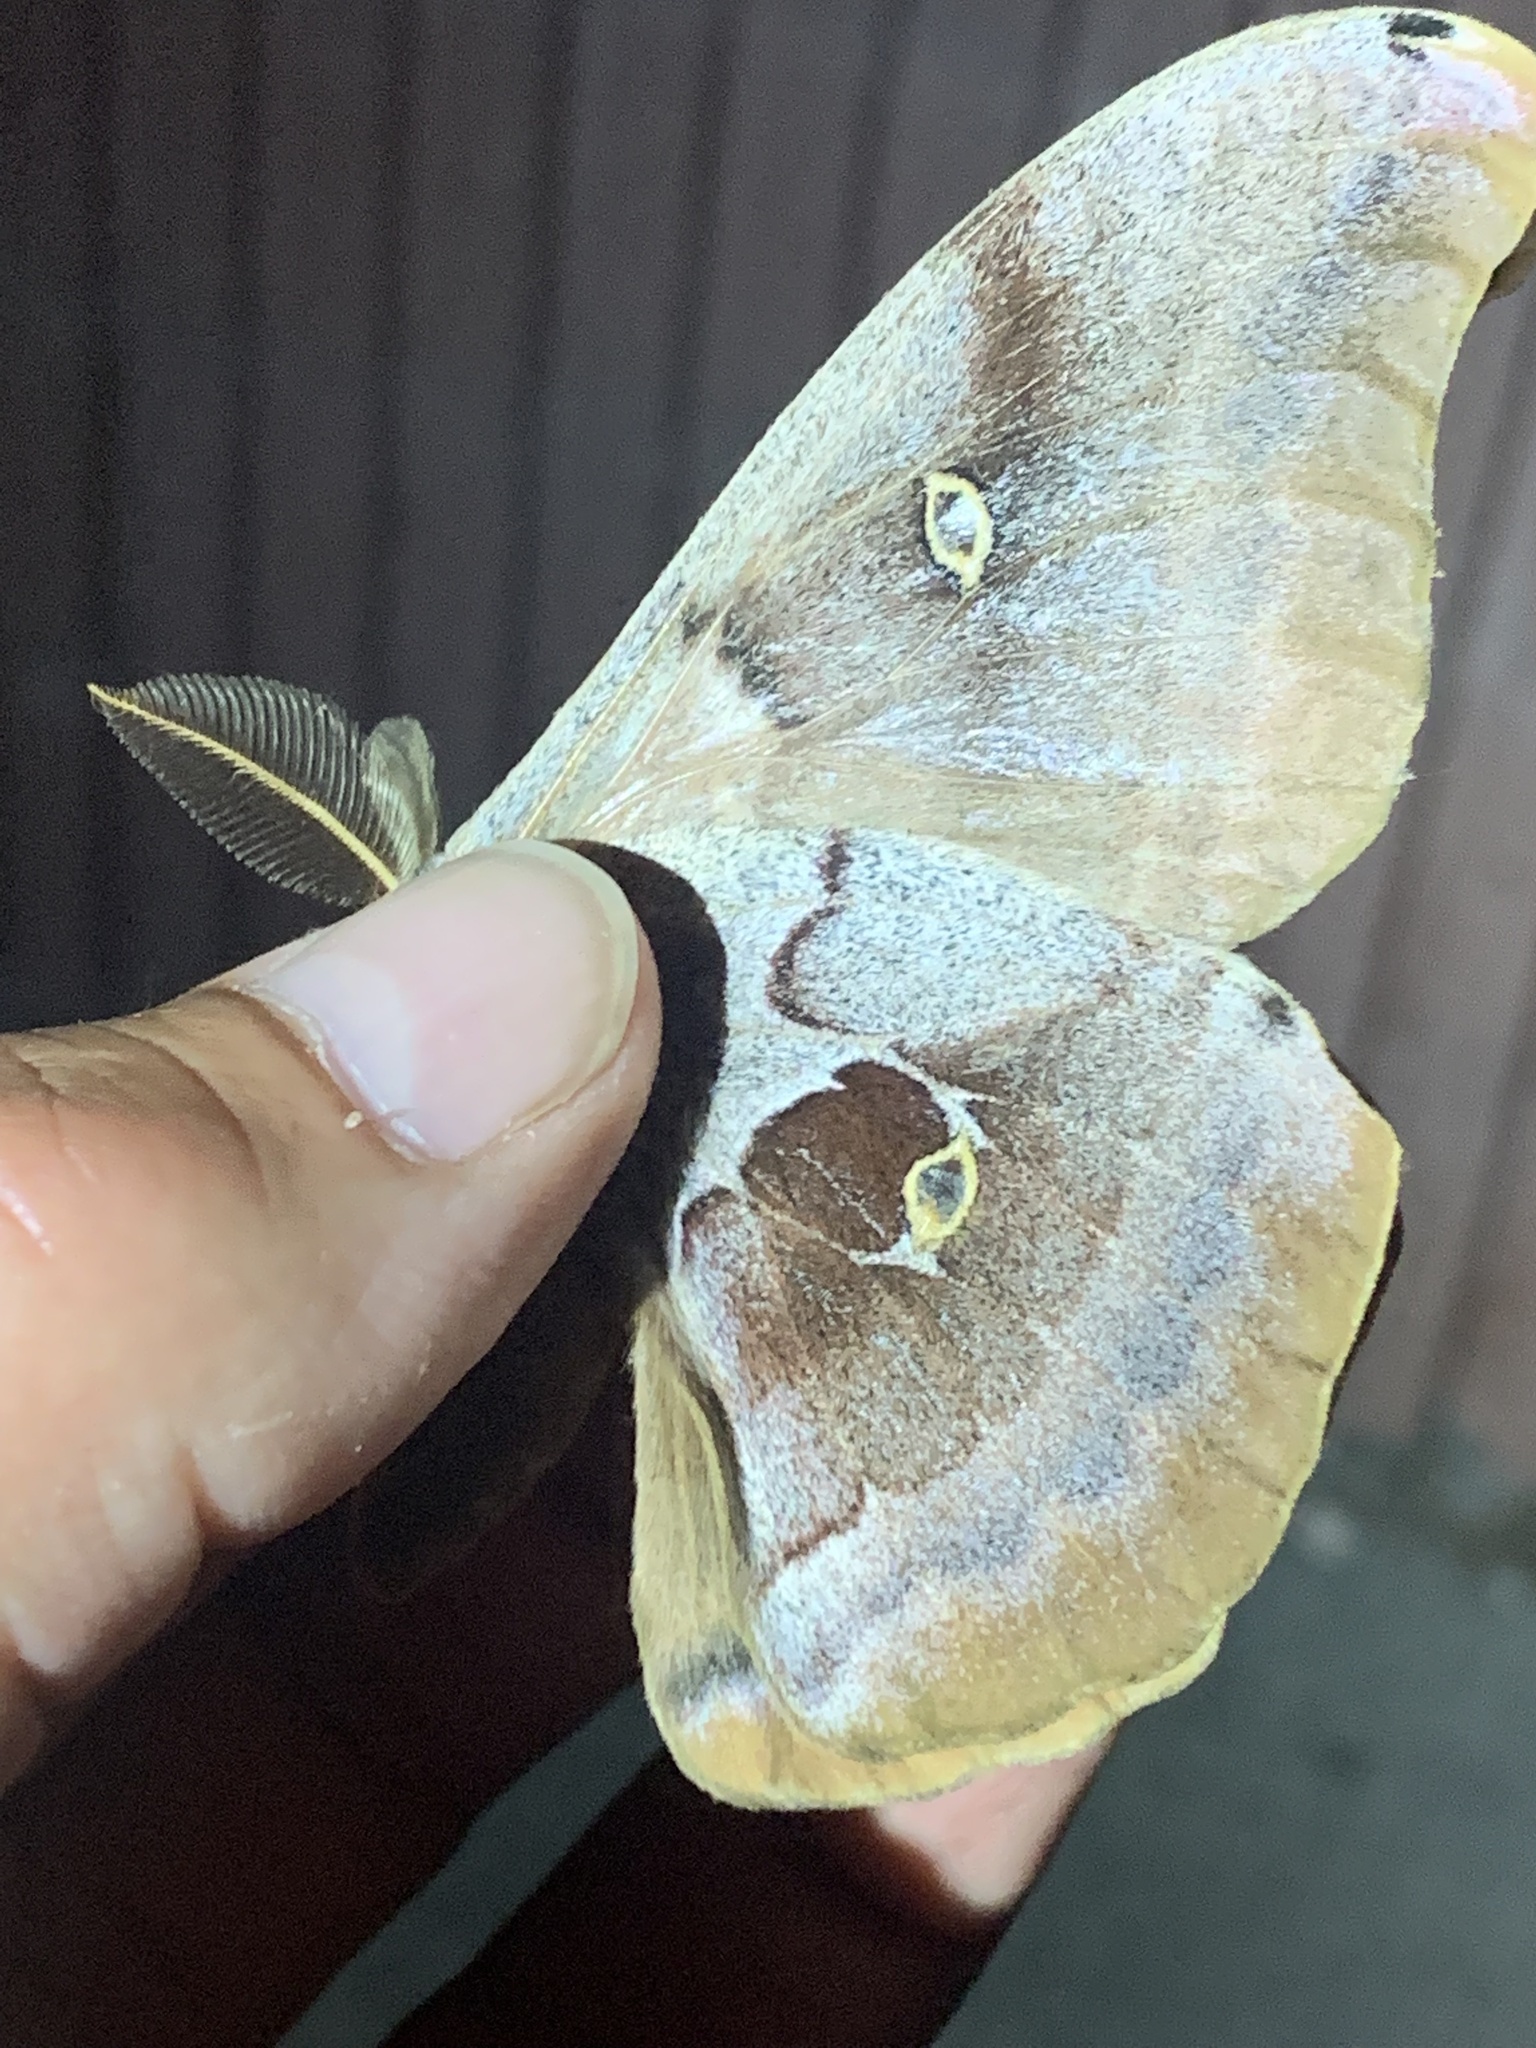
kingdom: Animalia
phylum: Arthropoda
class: Insecta
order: Lepidoptera
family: Saturniidae
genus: Antheraea
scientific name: Antheraea polyphemus
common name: Polyphemus moth
